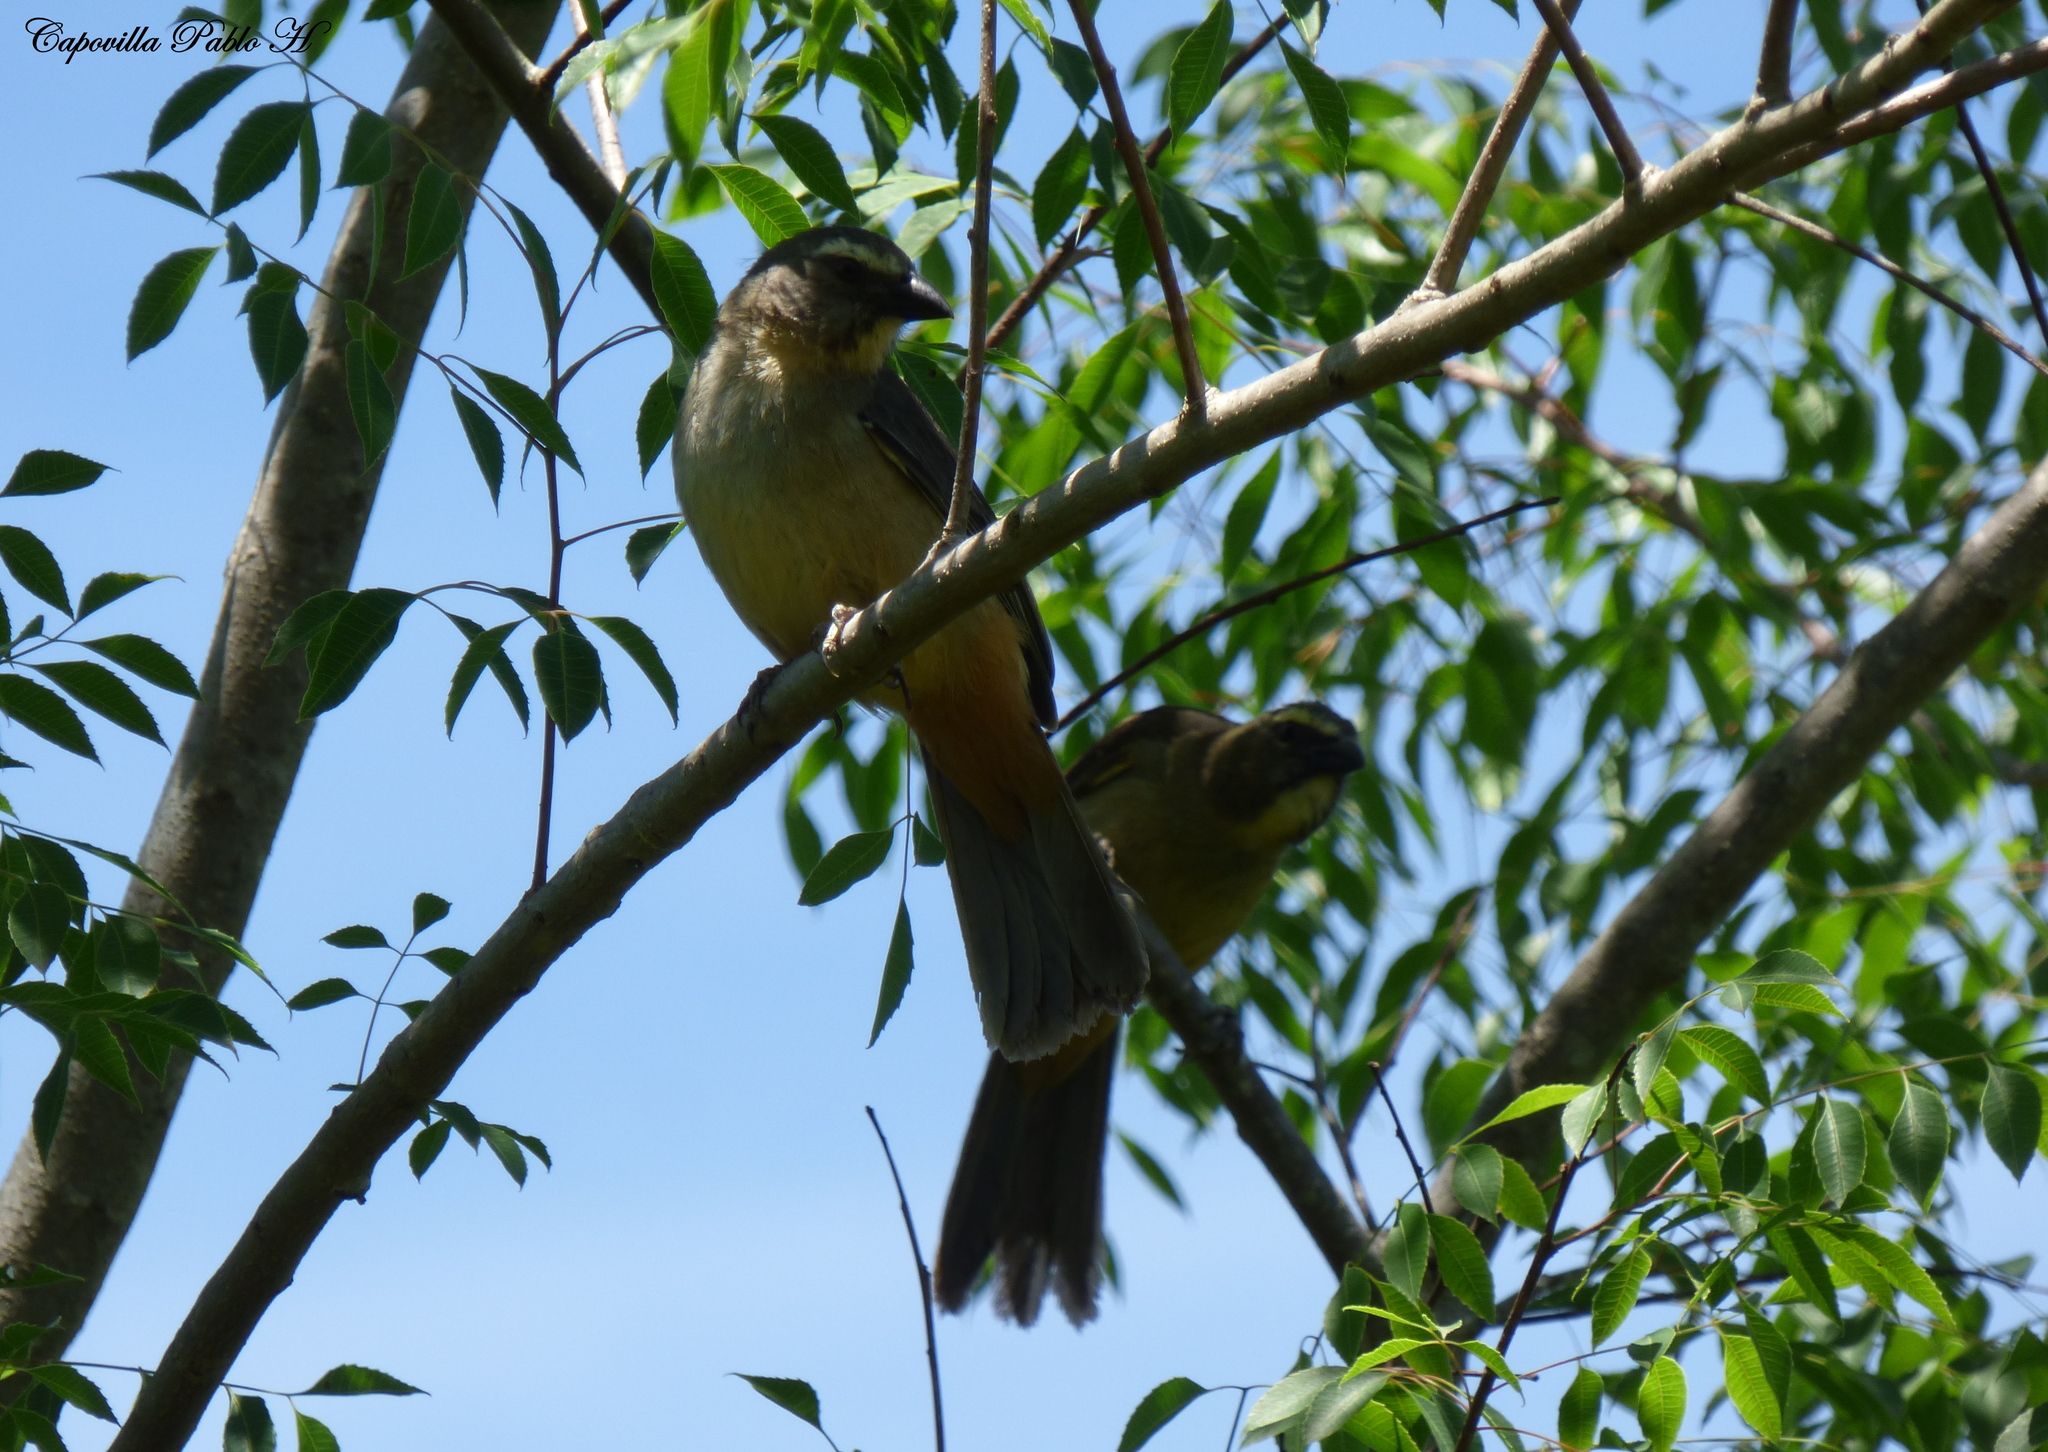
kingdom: Animalia
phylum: Chordata
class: Aves
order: Passeriformes
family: Thraupidae
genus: Saltator
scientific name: Saltator coerulescens
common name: Grayish saltator
